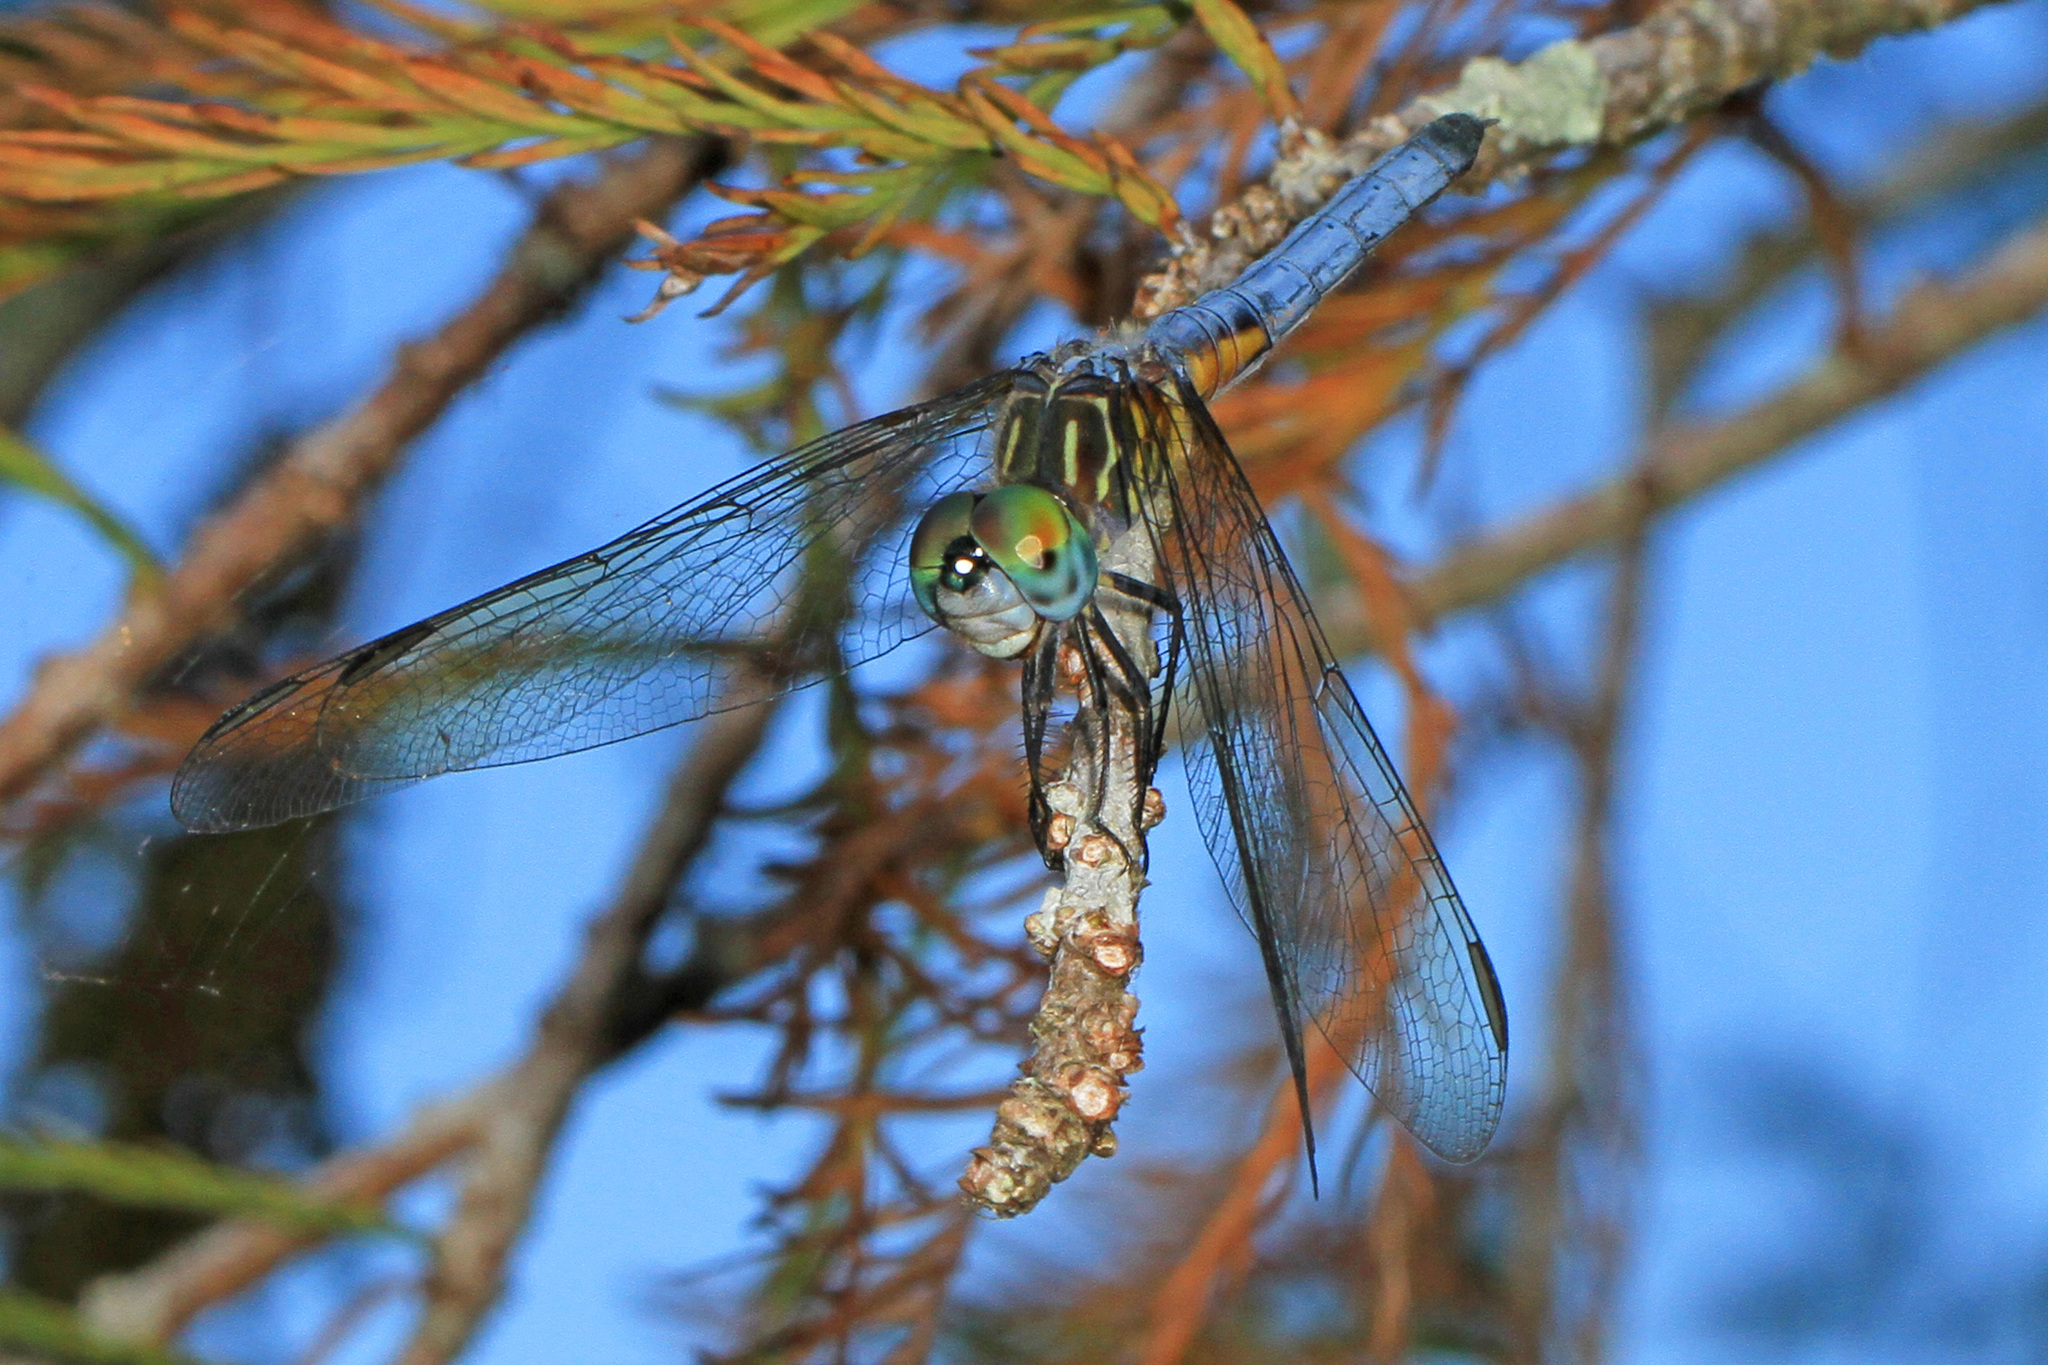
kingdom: Animalia
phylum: Arthropoda
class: Insecta
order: Odonata
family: Libellulidae
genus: Pachydiplax
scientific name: Pachydiplax longipennis
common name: Blue dasher
